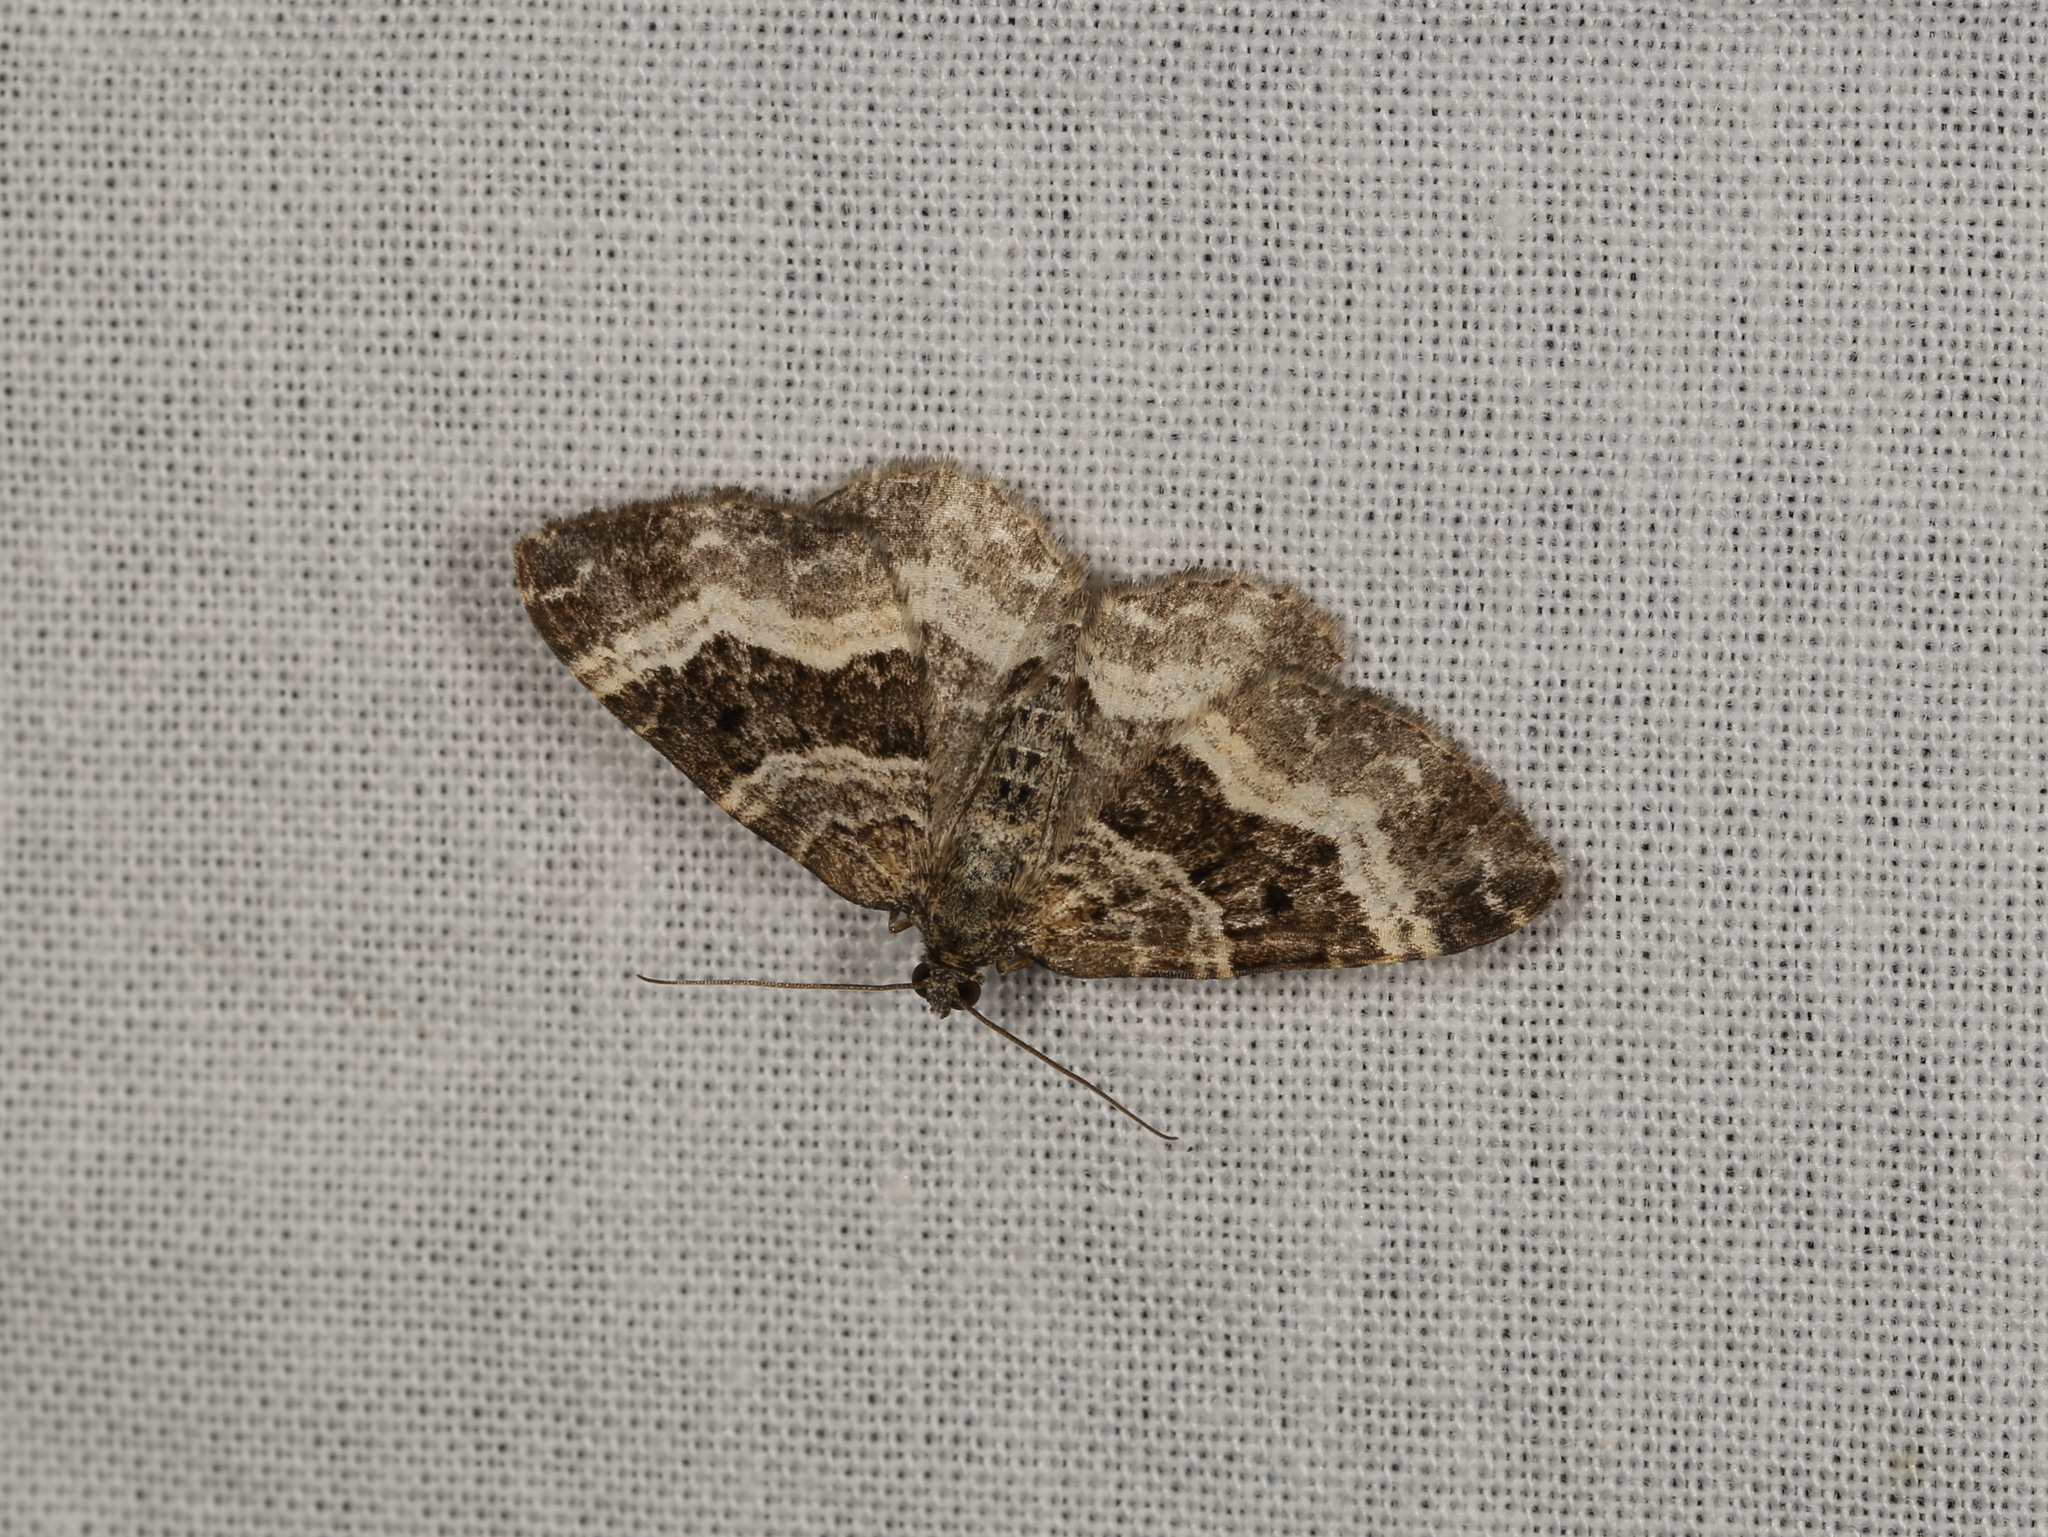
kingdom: Animalia
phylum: Arthropoda
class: Insecta
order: Lepidoptera
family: Geometridae
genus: Epirrhoe
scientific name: Epirrhoe alternata
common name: Common carpet
